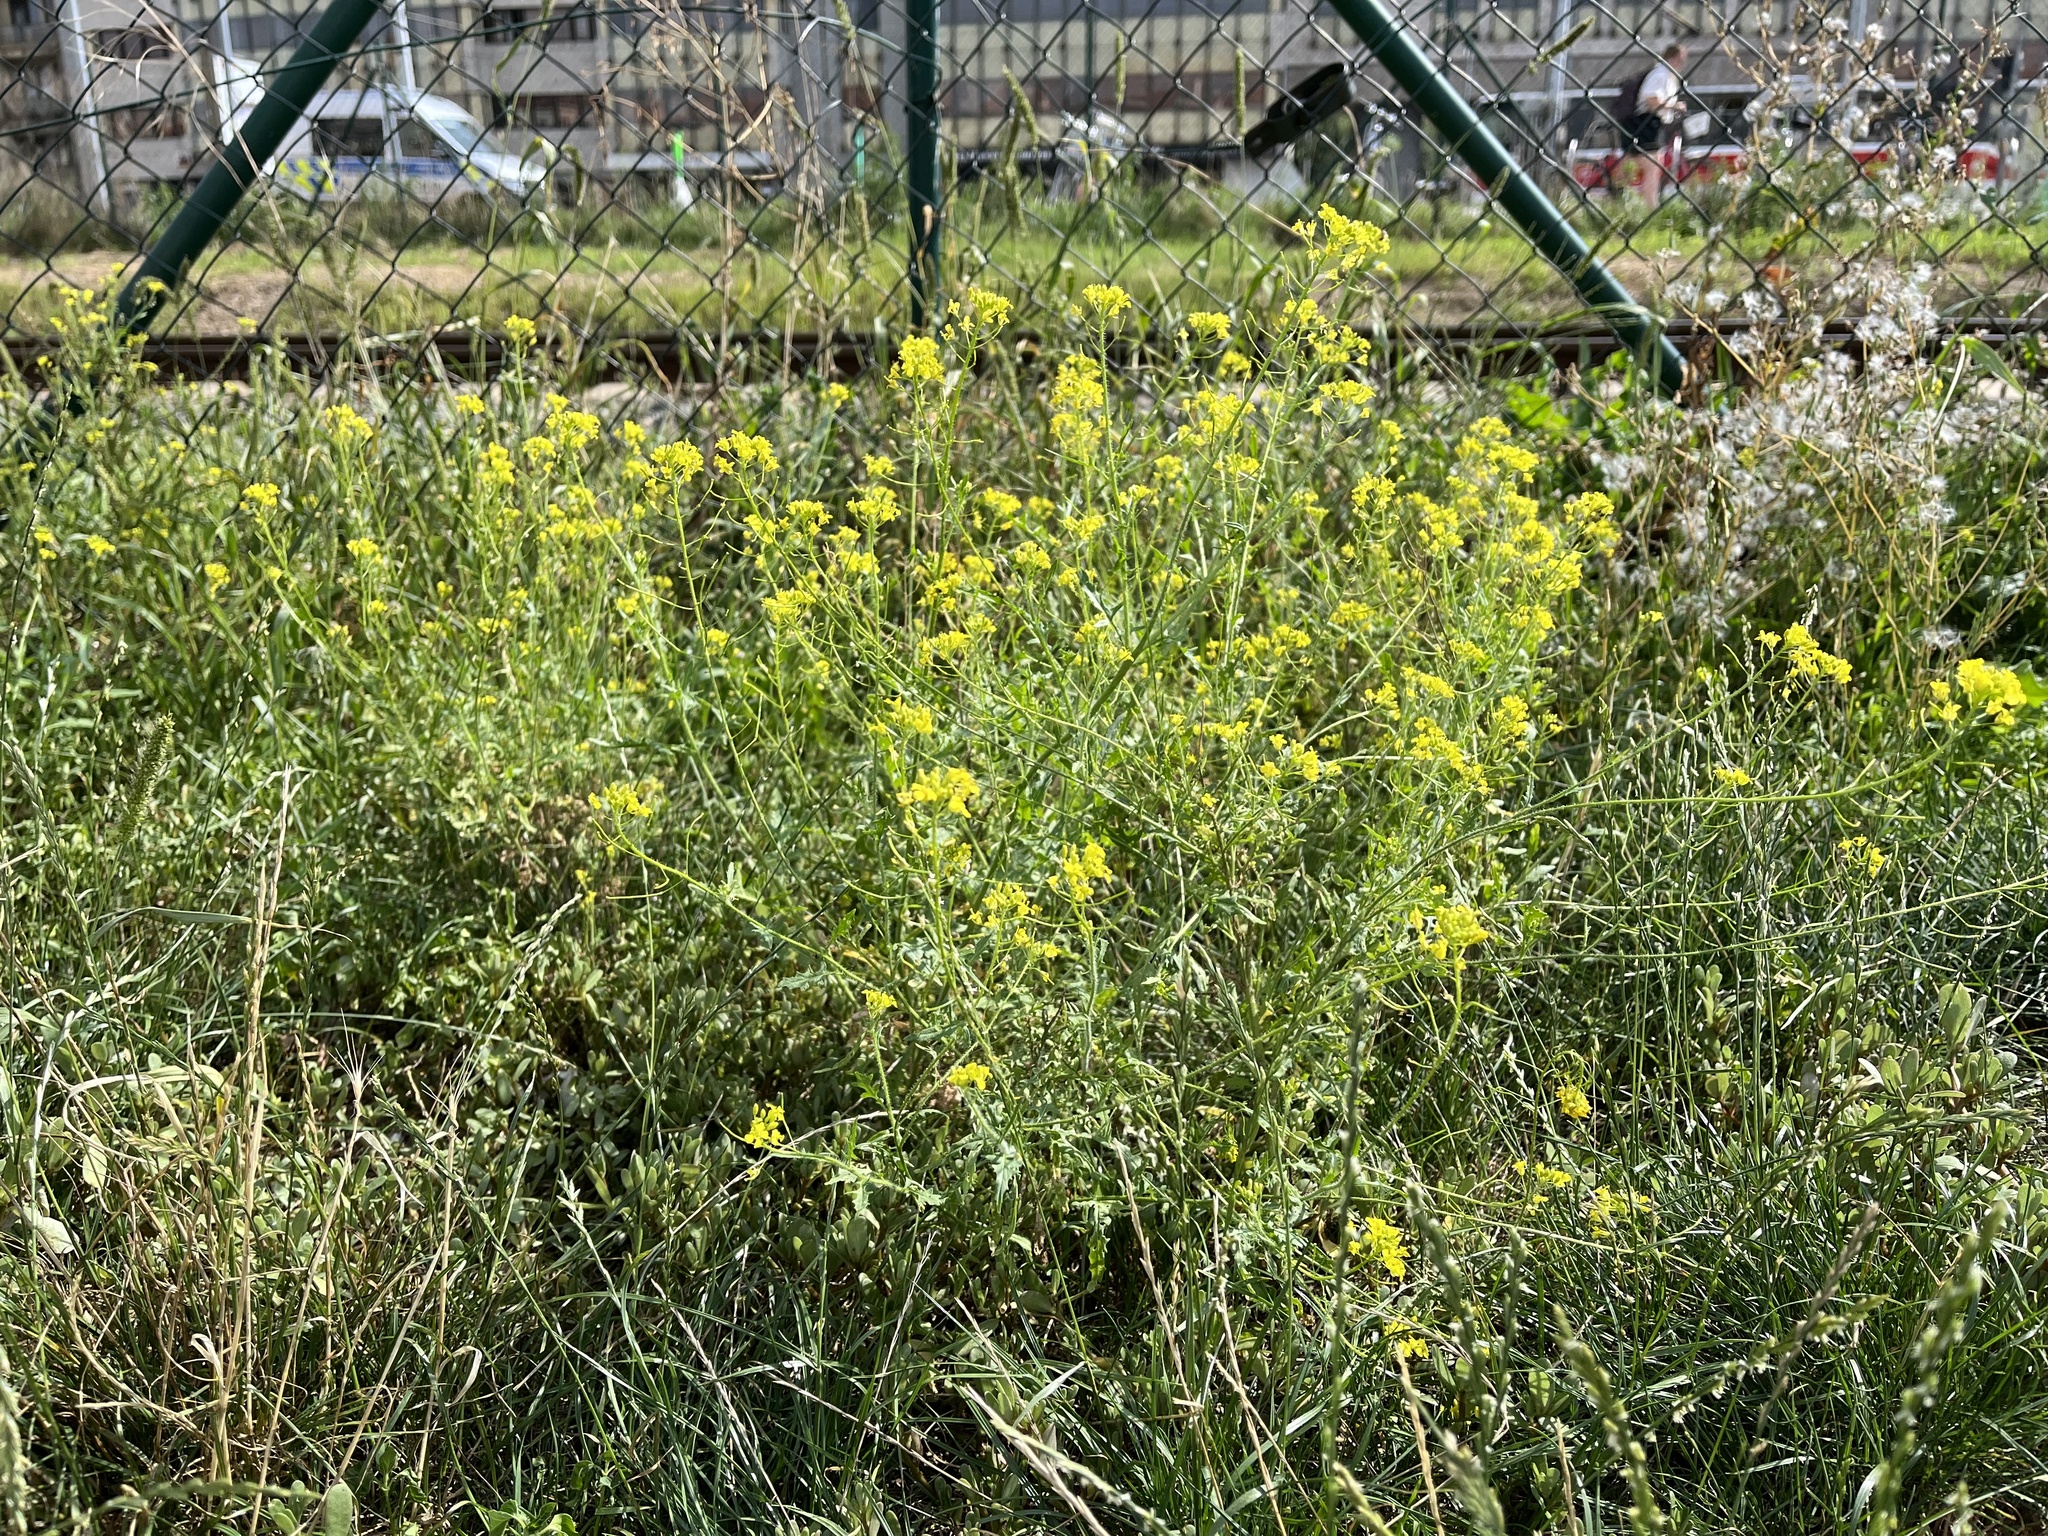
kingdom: Plantae
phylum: Tracheophyta
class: Magnoliopsida
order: Brassicales
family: Brassicaceae
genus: Sisymbrium
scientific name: Sisymbrium loeselii
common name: False london-rocket
